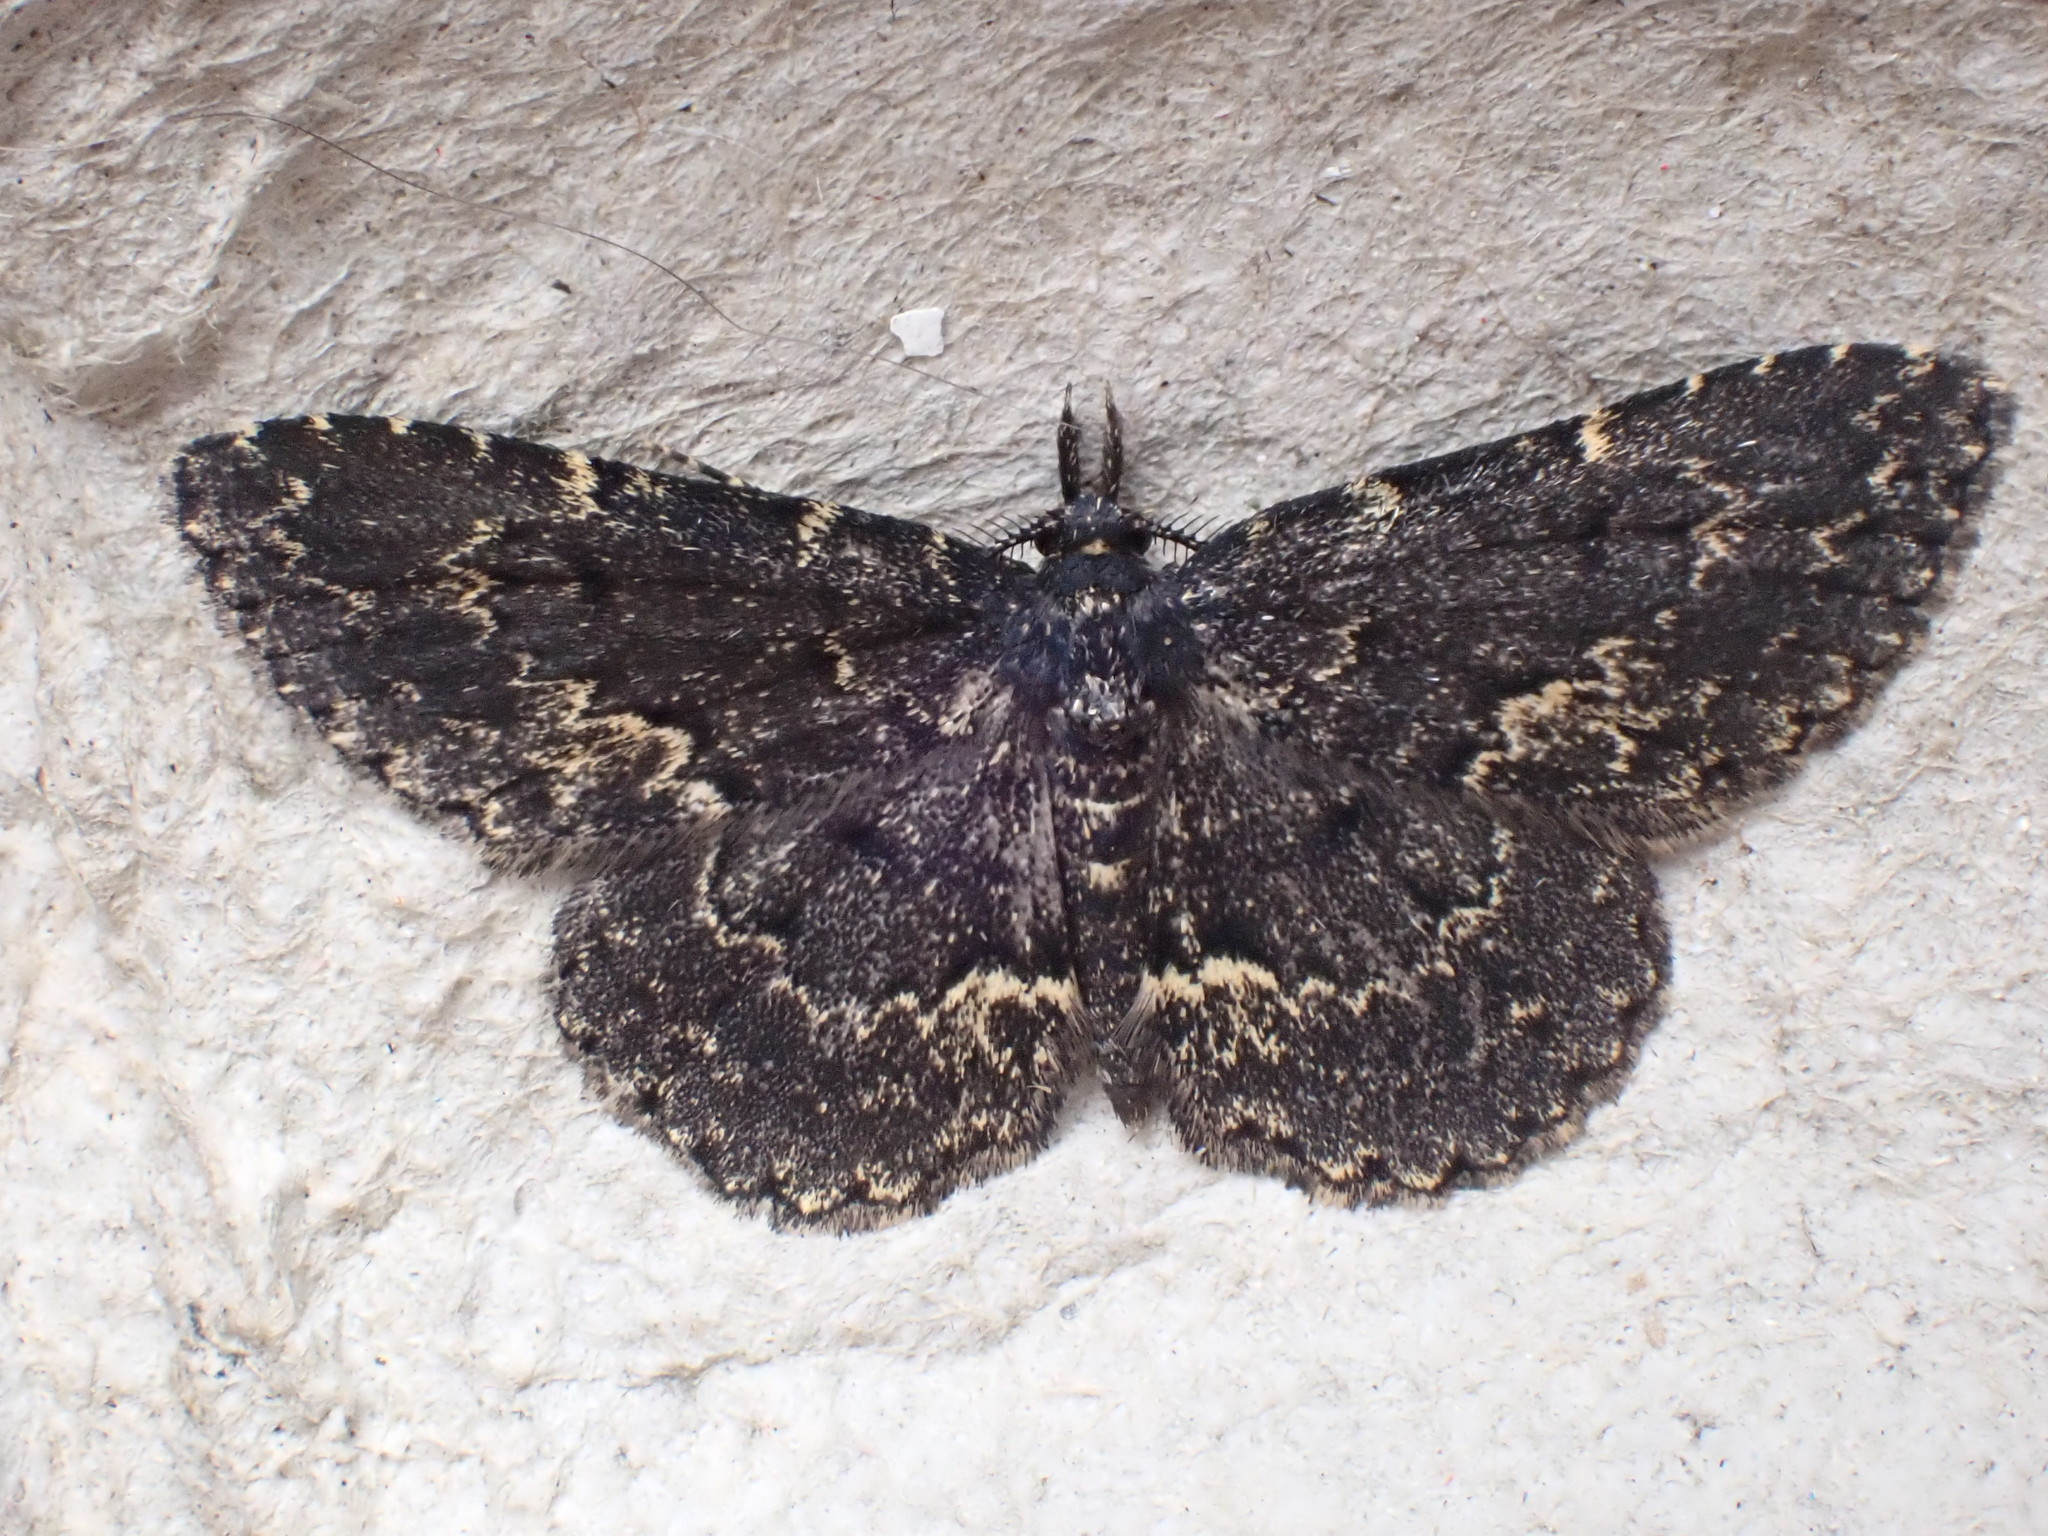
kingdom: Animalia
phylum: Arthropoda
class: Insecta
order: Lepidoptera
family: Erebidae
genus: Parascotia
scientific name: Parascotia fuliginaria
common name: Waved black
